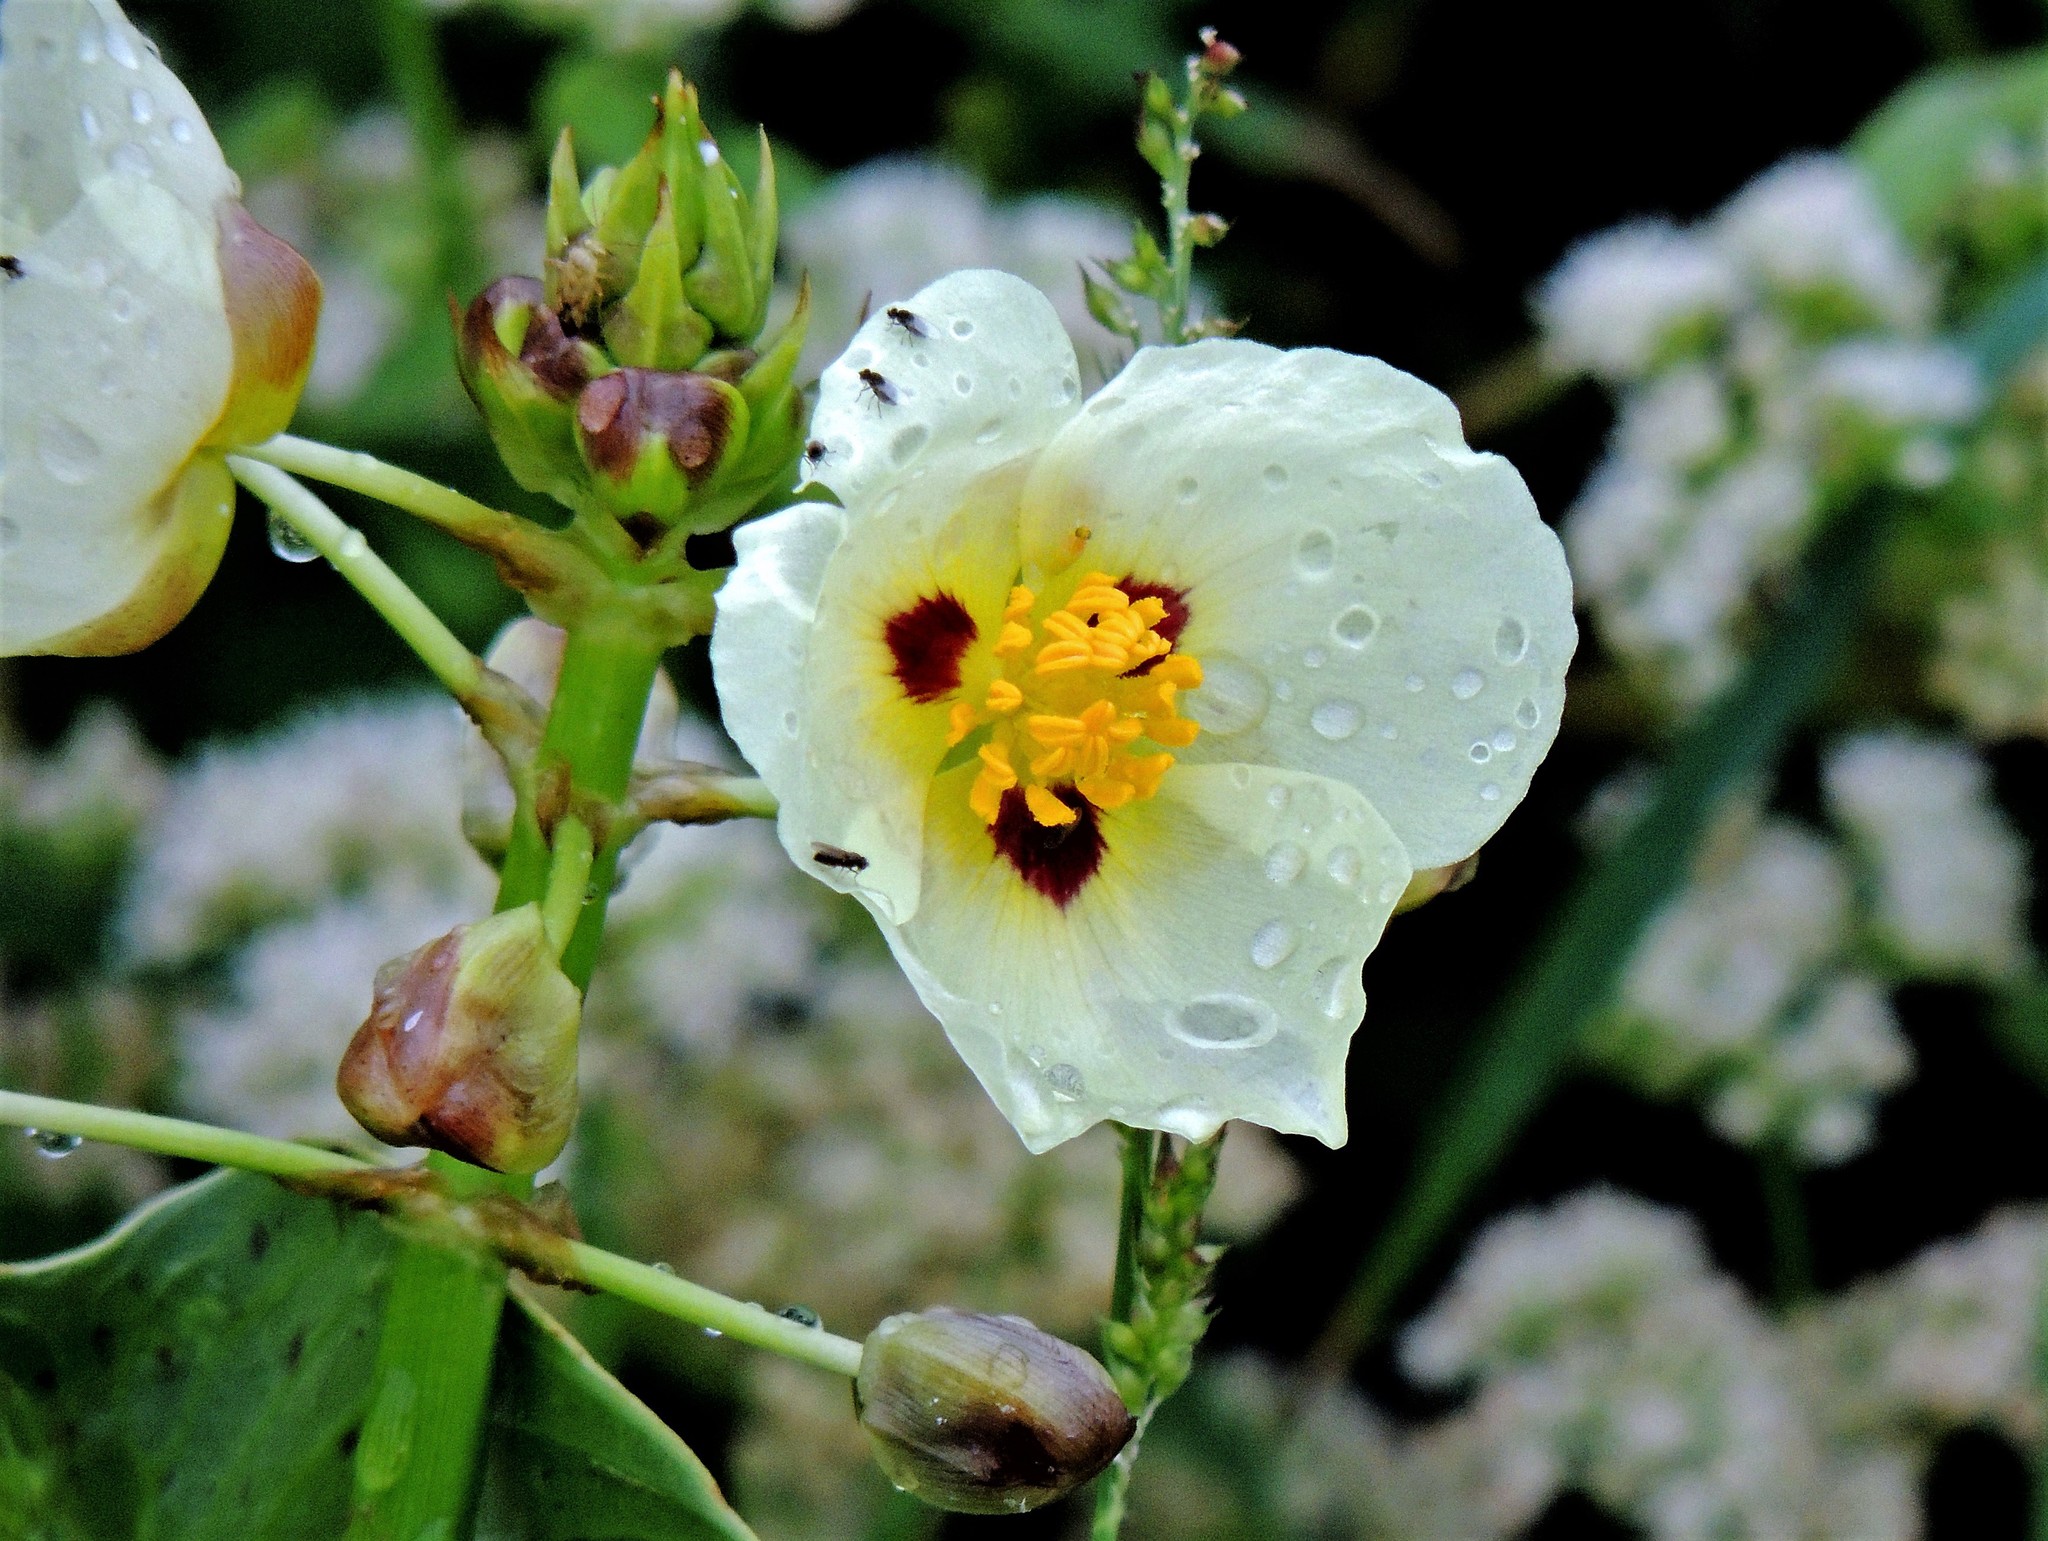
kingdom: Plantae
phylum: Tracheophyta
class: Liliopsida
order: Alismatales
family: Alismataceae
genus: Sagittaria
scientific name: Sagittaria montevidensis
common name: Giant arrowhead
